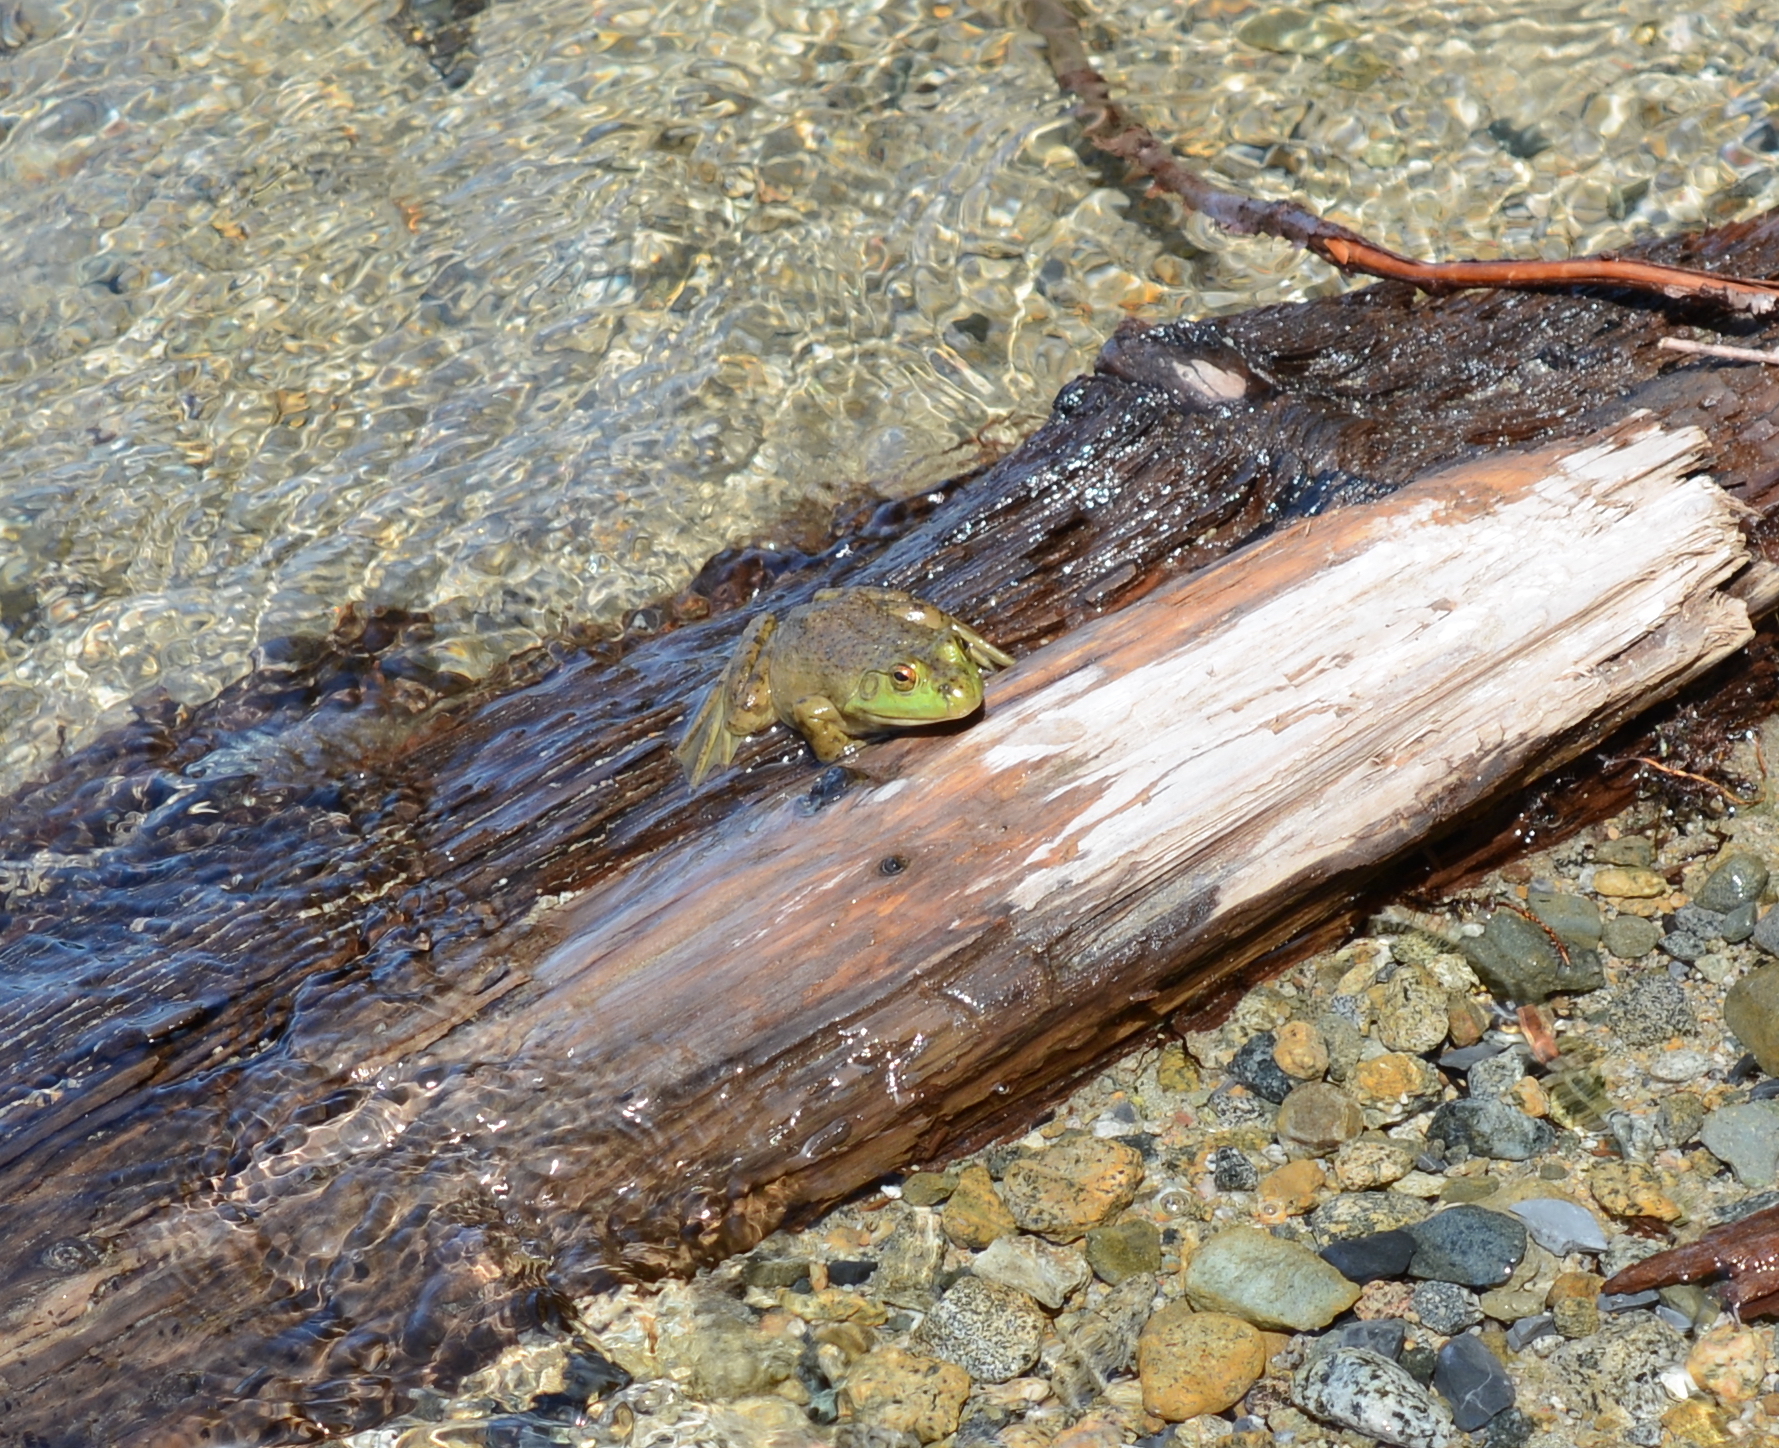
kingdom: Animalia
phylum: Chordata
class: Amphibia
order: Anura
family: Ranidae
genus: Lithobates
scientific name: Lithobates catesbeianus
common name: American bullfrog
